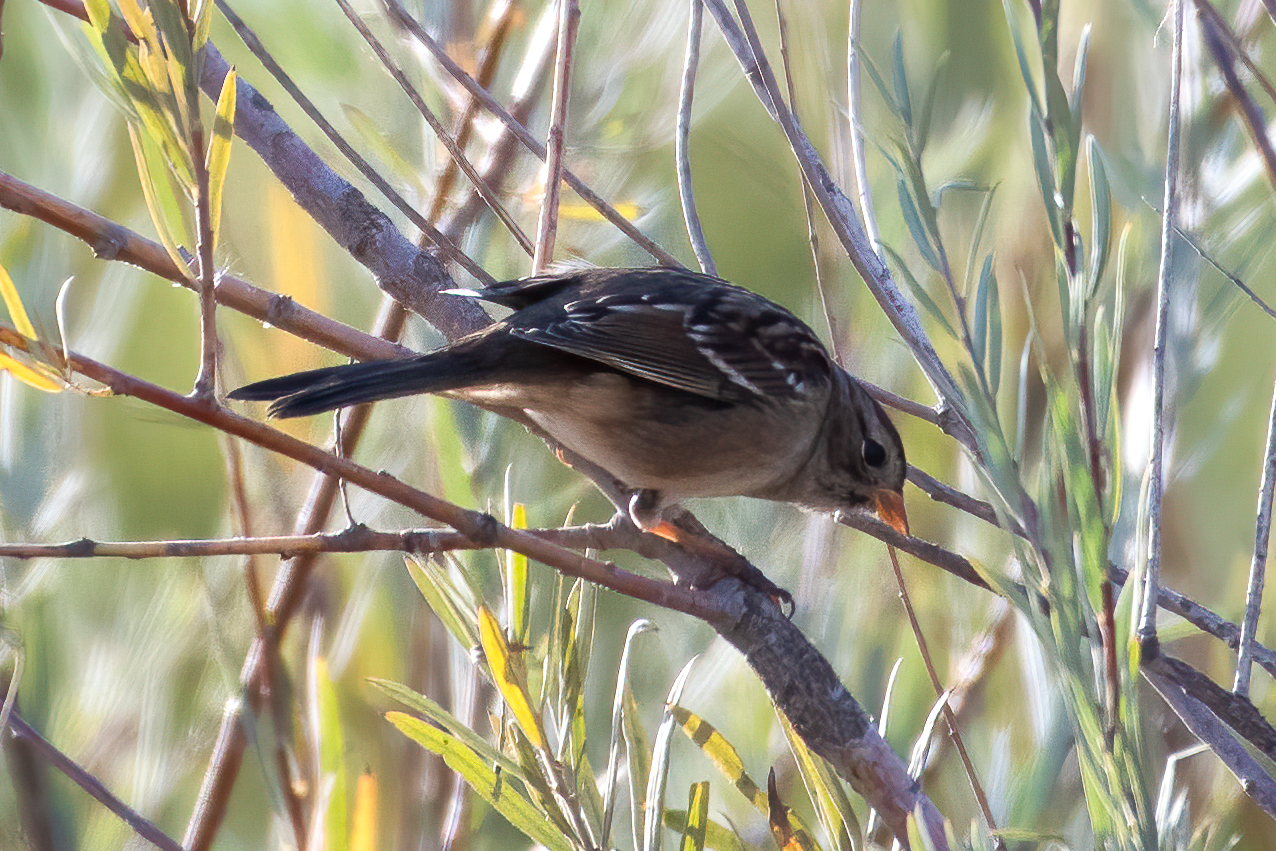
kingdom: Animalia
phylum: Chordata
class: Aves
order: Passeriformes
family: Passerellidae
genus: Zonotrichia
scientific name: Zonotrichia leucophrys
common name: White-crowned sparrow
